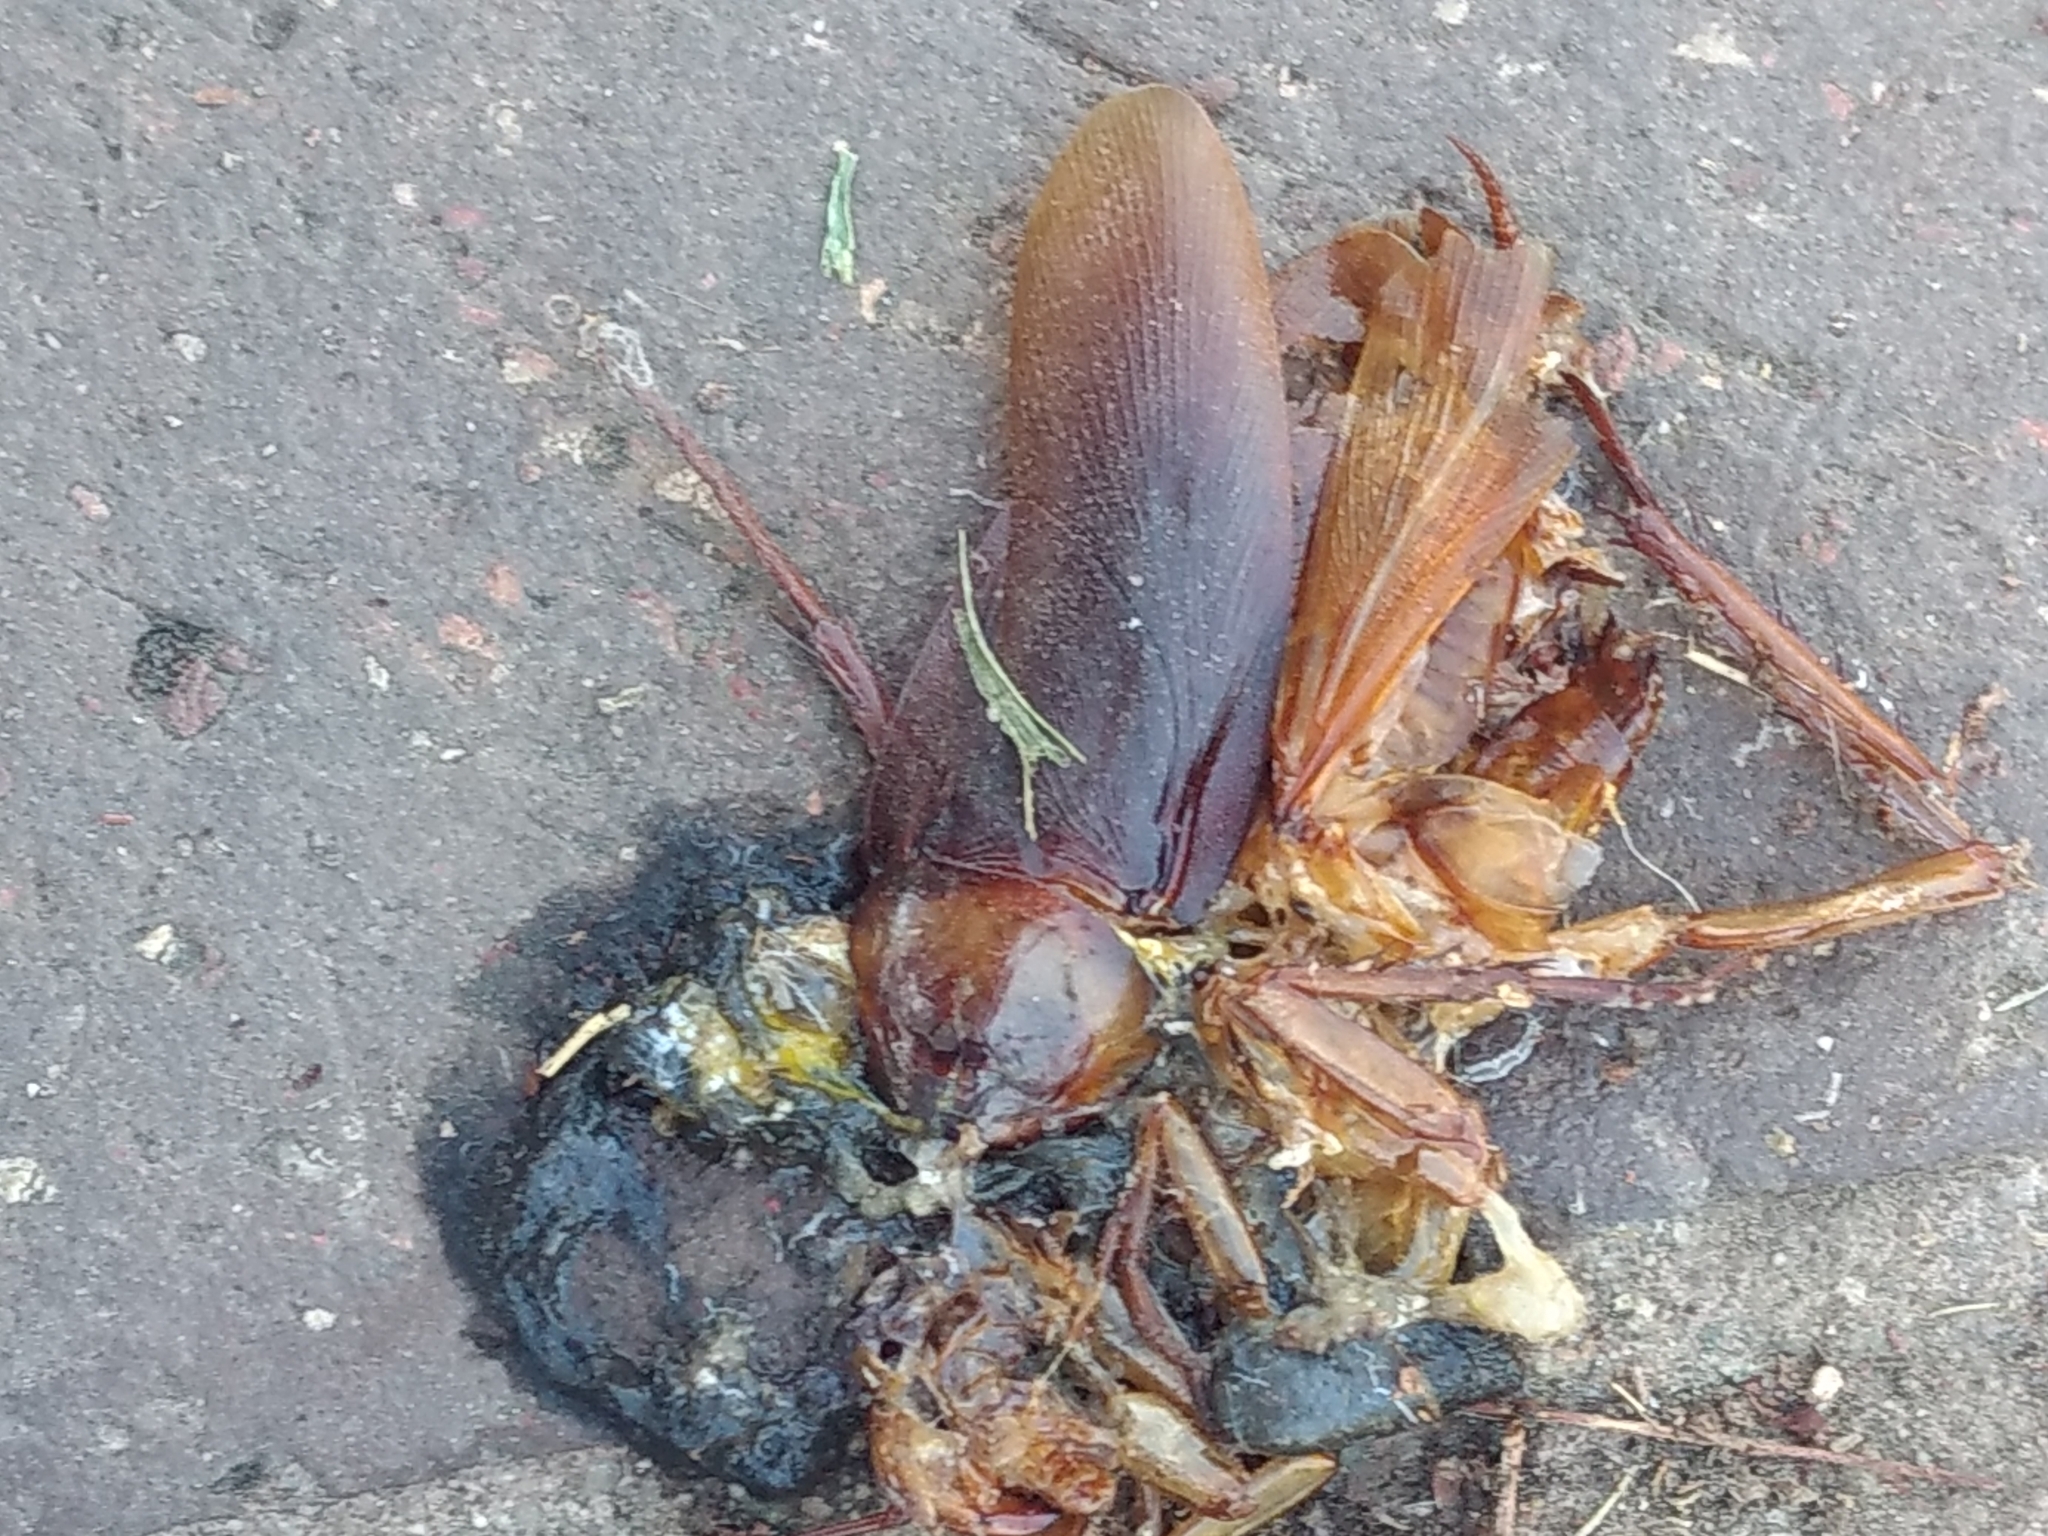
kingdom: Animalia
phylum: Arthropoda
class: Insecta
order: Blattodea
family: Blattidae
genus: Periplaneta
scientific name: Periplaneta americana
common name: American cockroach
